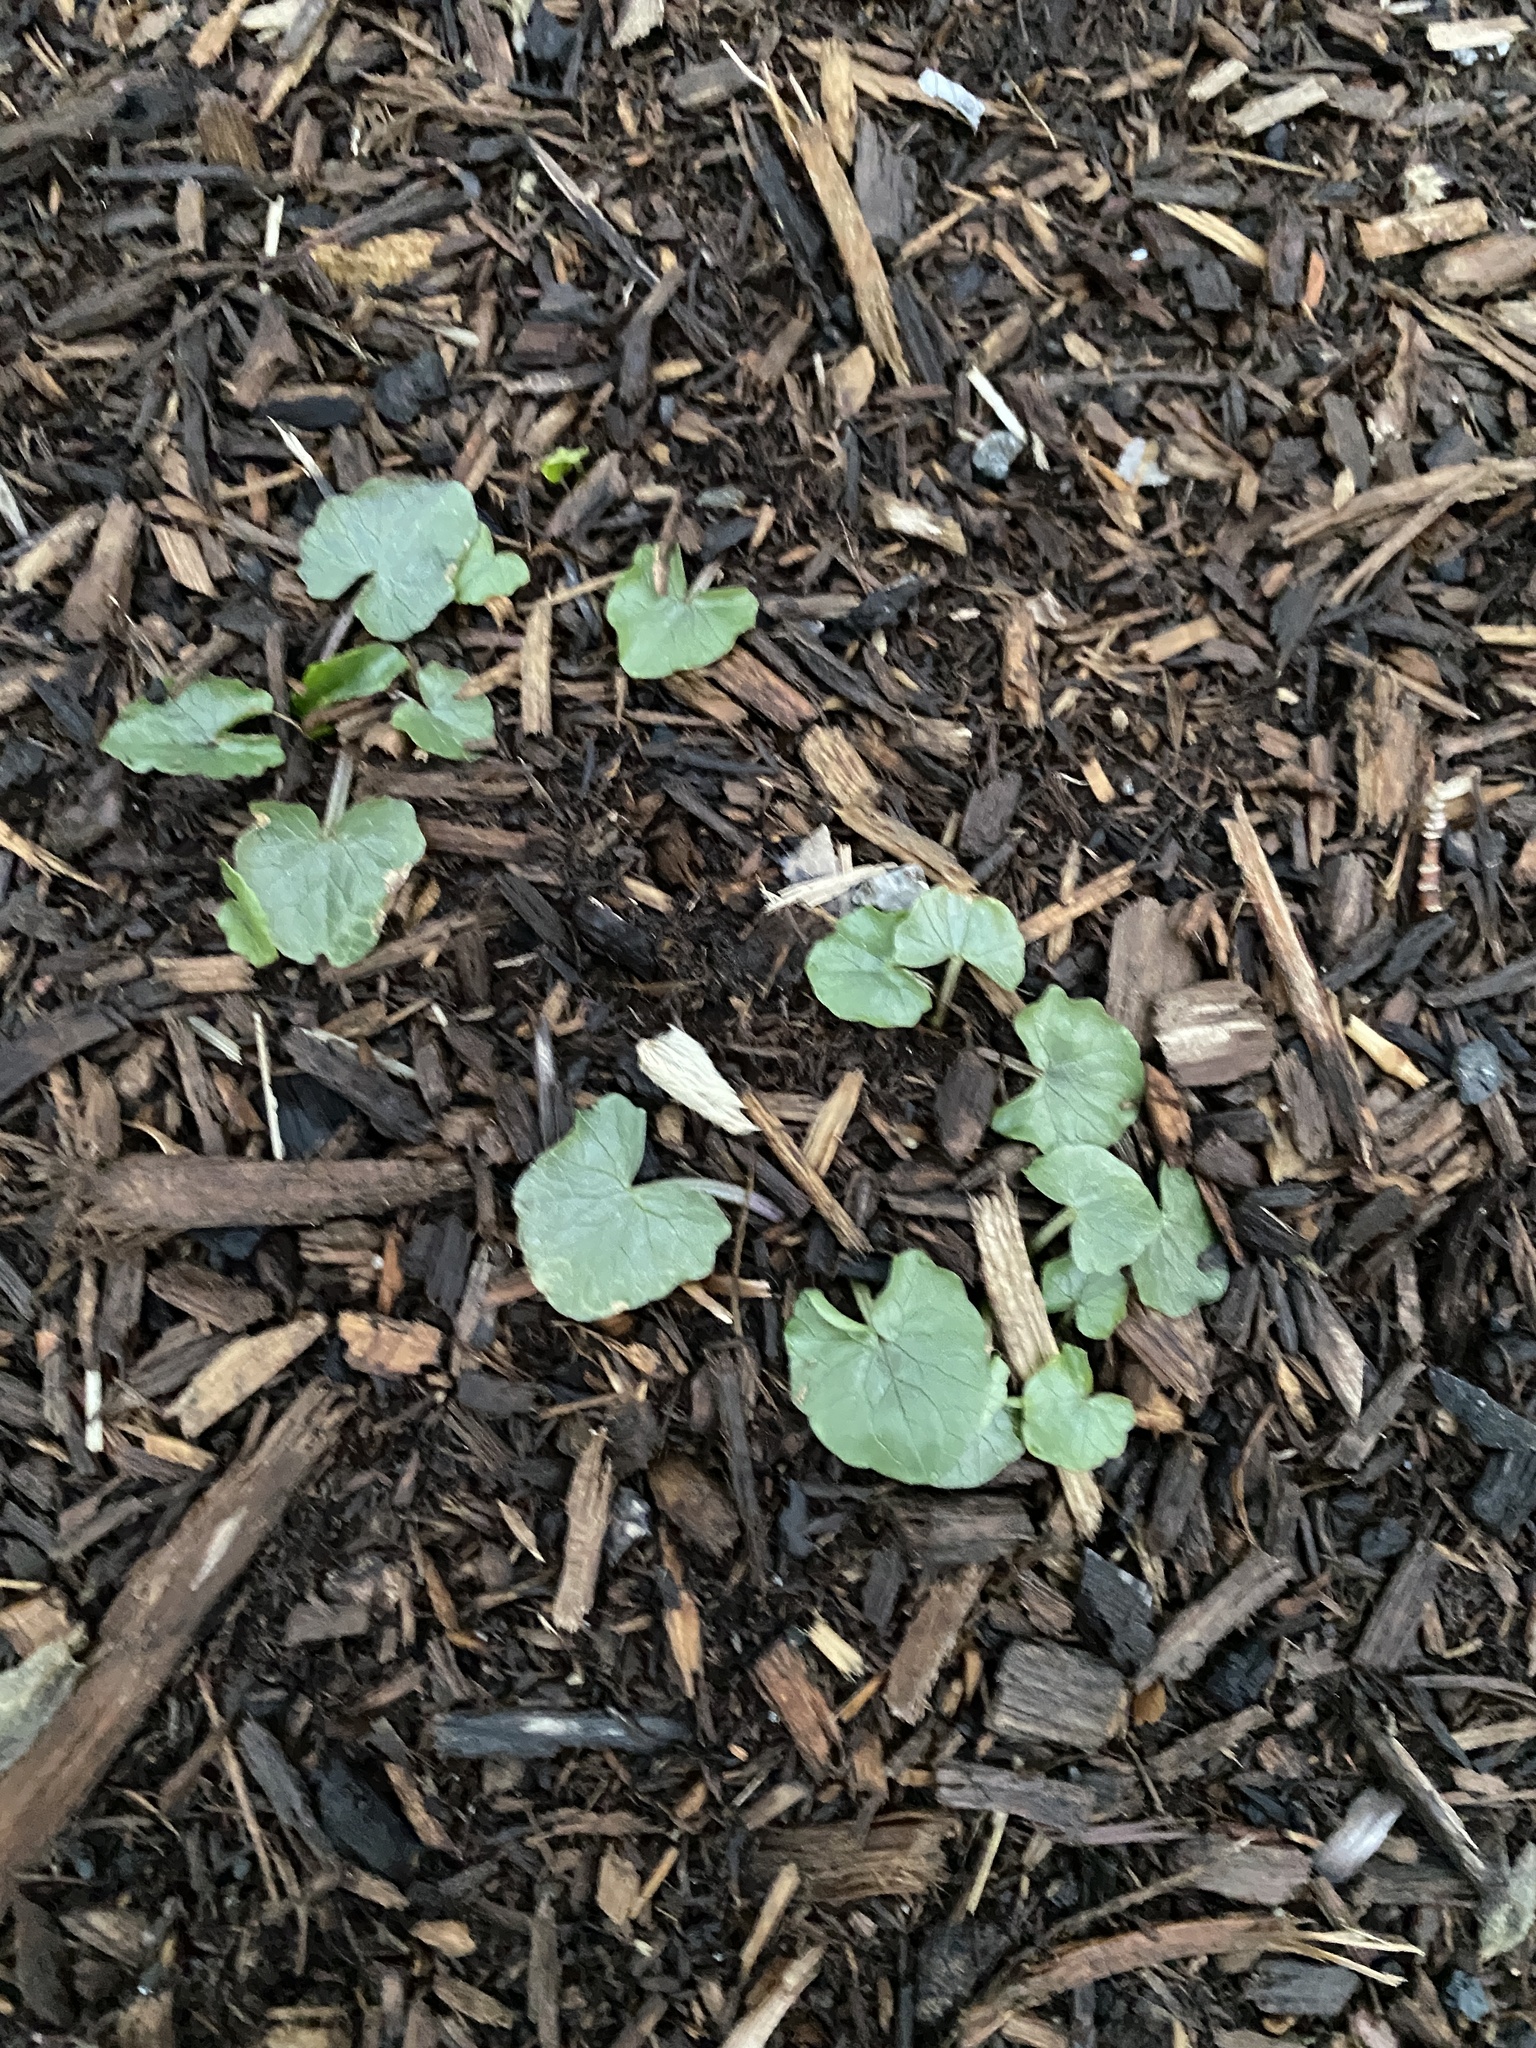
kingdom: Plantae
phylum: Tracheophyta
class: Magnoliopsida
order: Ranunculales
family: Ranunculaceae
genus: Ficaria
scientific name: Ficaria verna
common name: Lesser celandine
